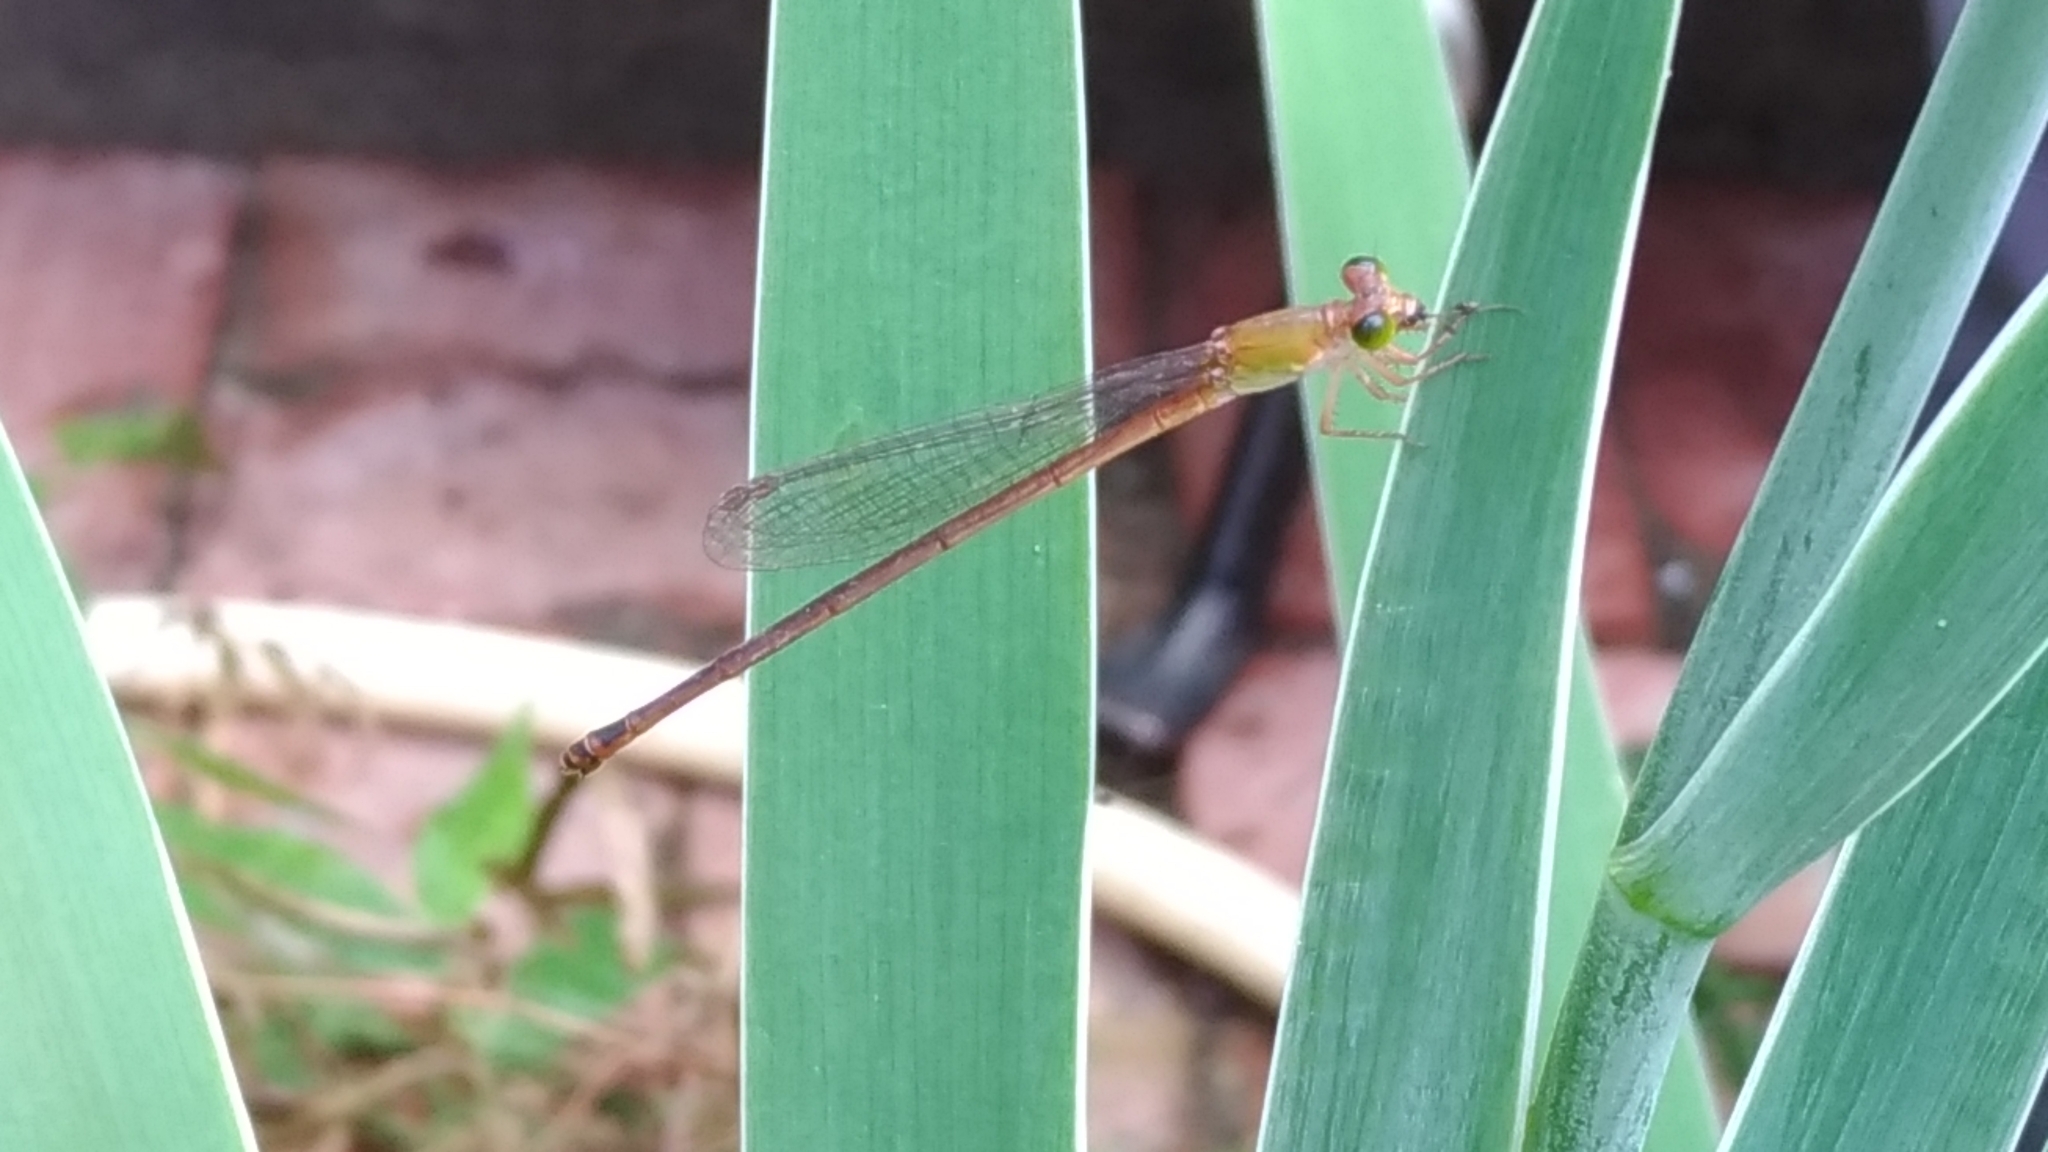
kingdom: Animalia
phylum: Arthropoda
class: Insecta
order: Odonata
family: Coenagrionidae
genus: Ceriagrion
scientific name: Ceriagrion auranticum
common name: Orange-tailed sprite
